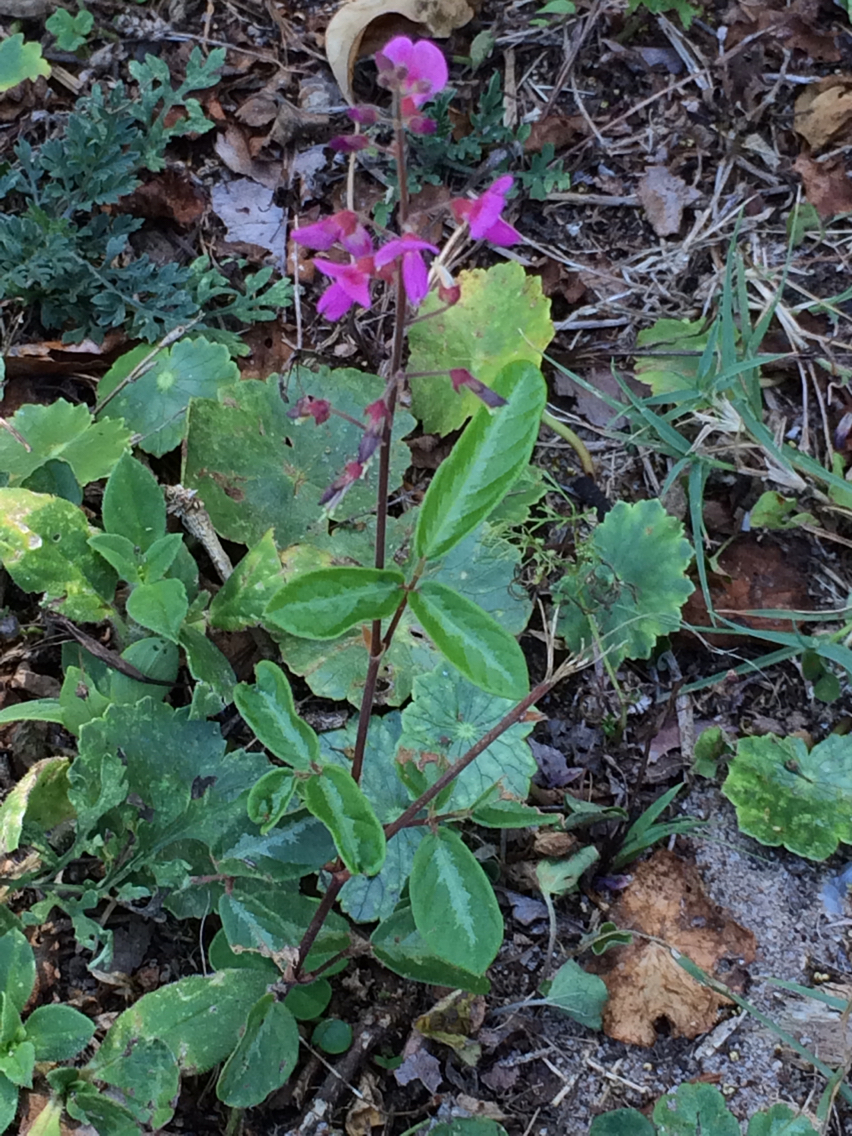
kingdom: Plantae
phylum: Tracheophyta
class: Magnoliopsida
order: Fabales
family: Fabaceae
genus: Desmodium
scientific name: Desmodium incanum
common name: Tickclover
